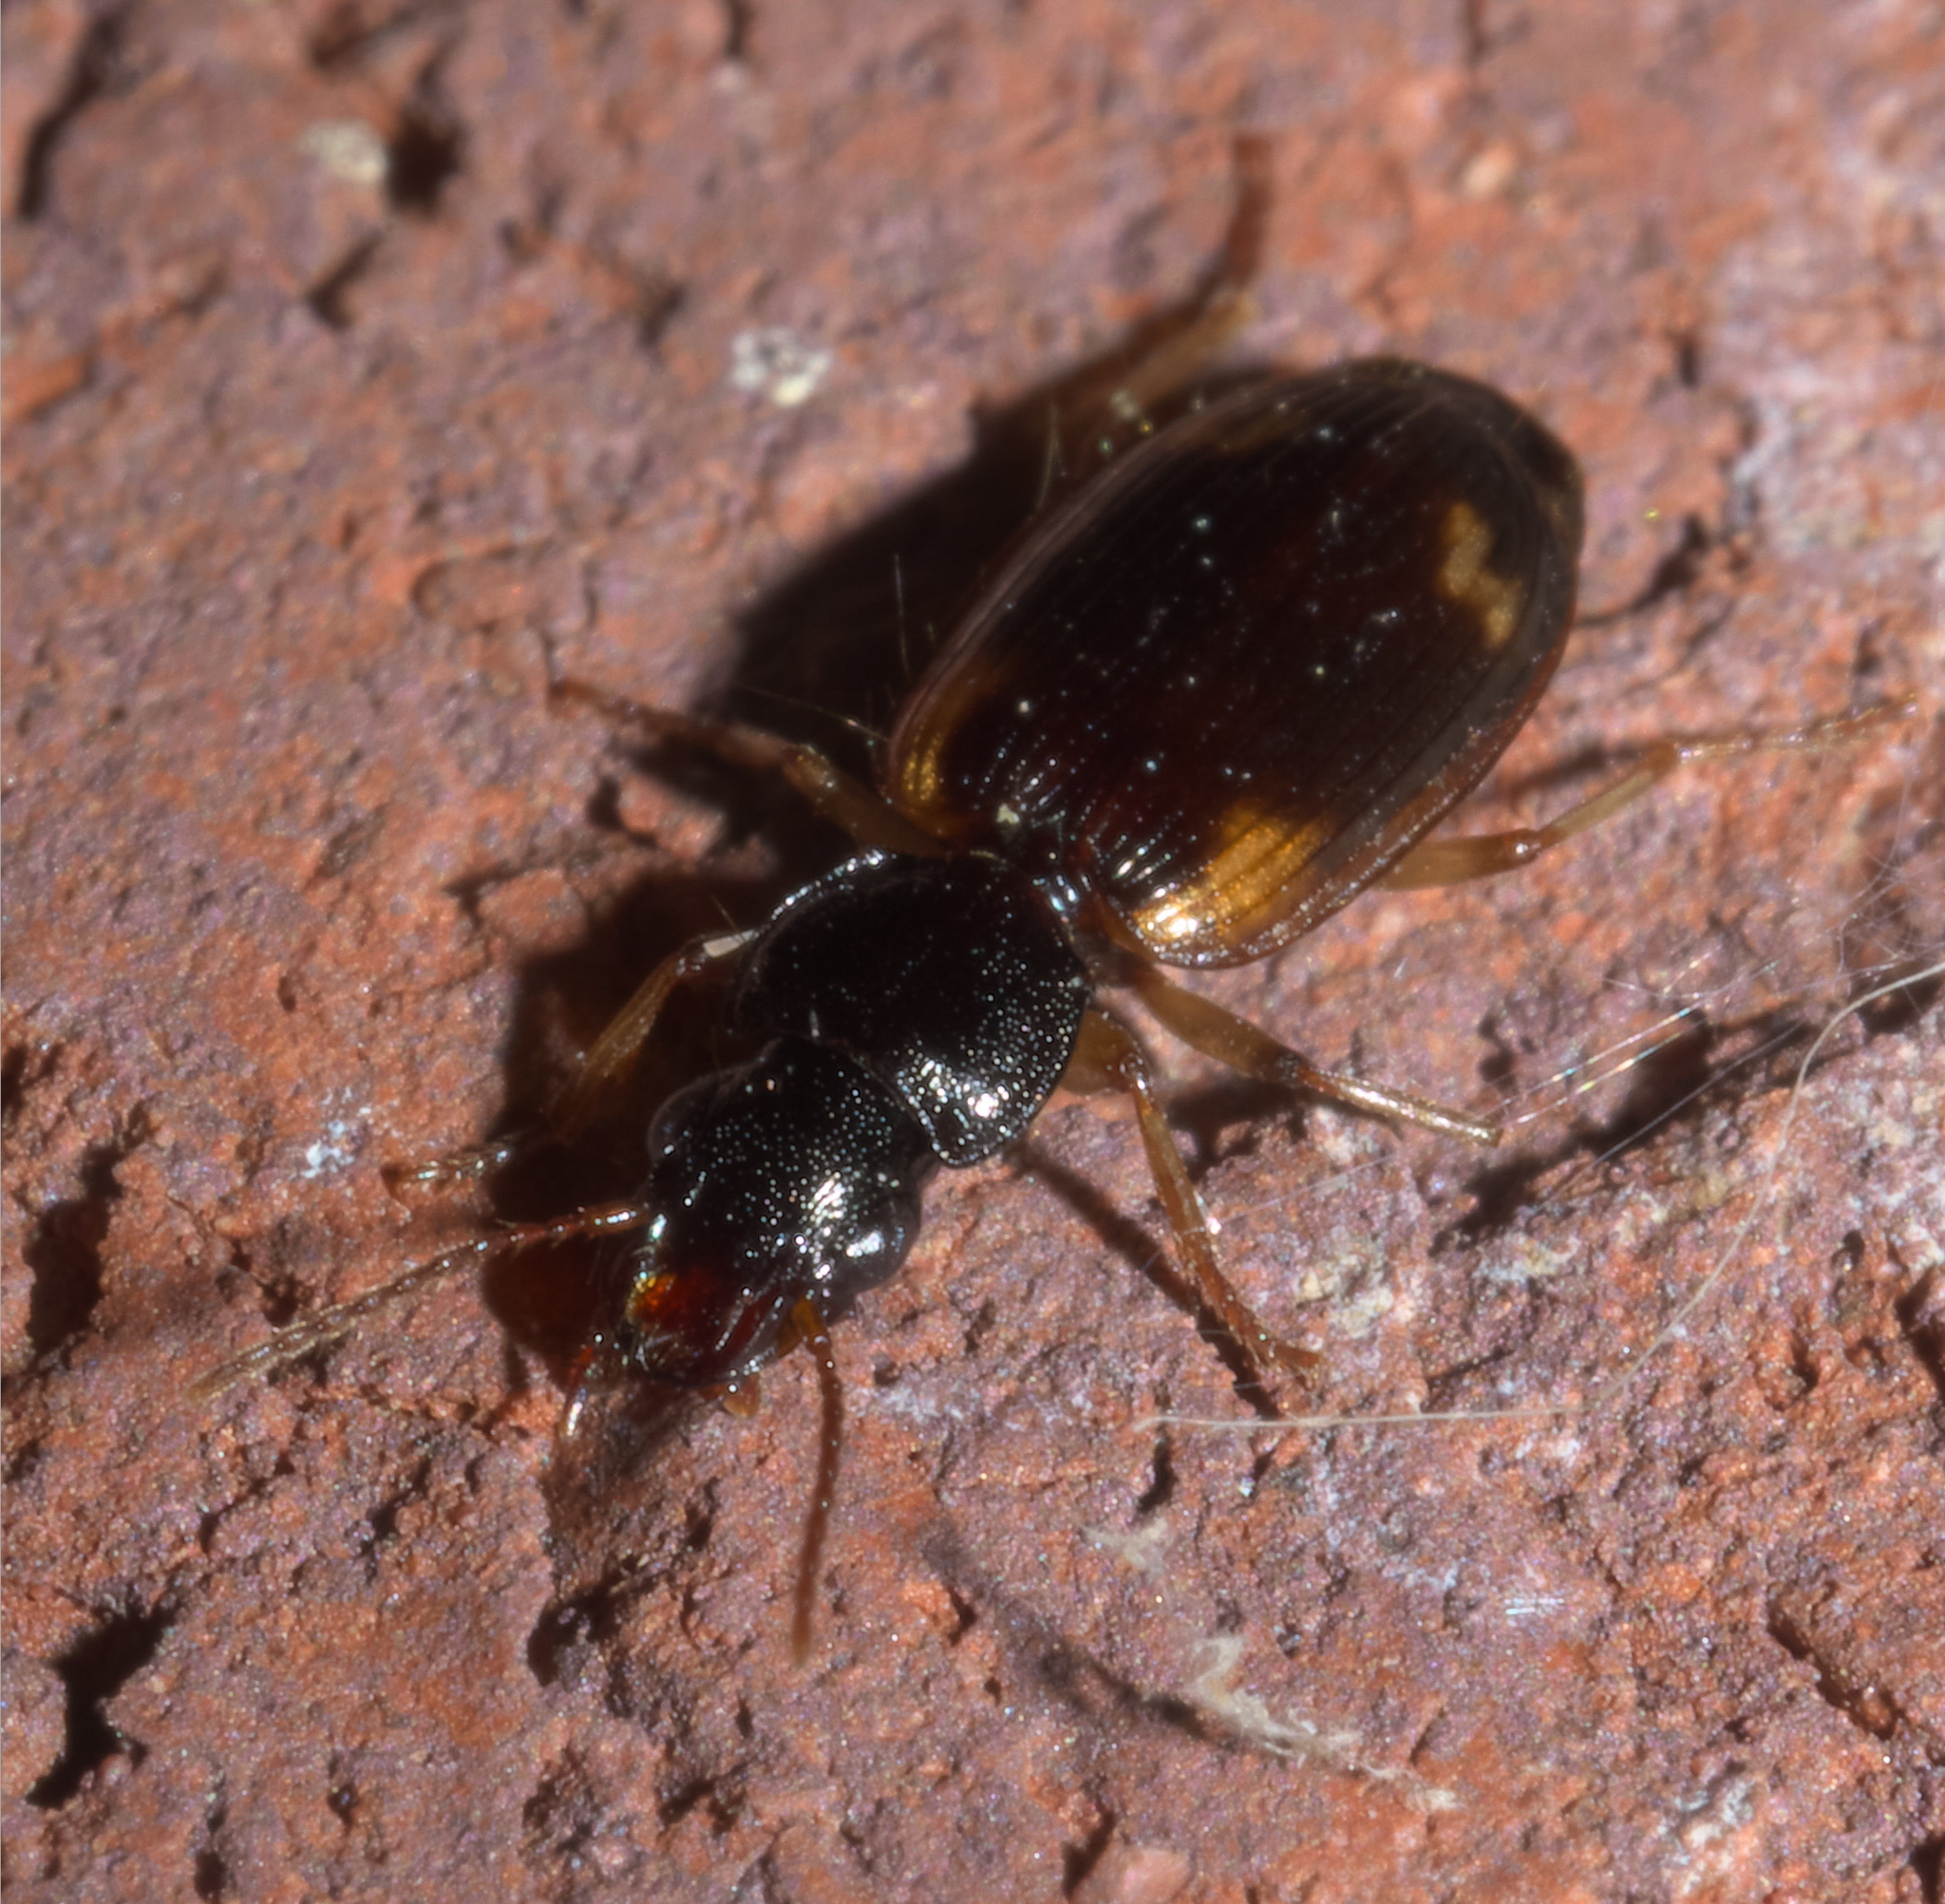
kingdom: Animalia
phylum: Arthropoda
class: Insecta
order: Coleoptera
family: Carabidae
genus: Apenes
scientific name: Apenes sinuata
